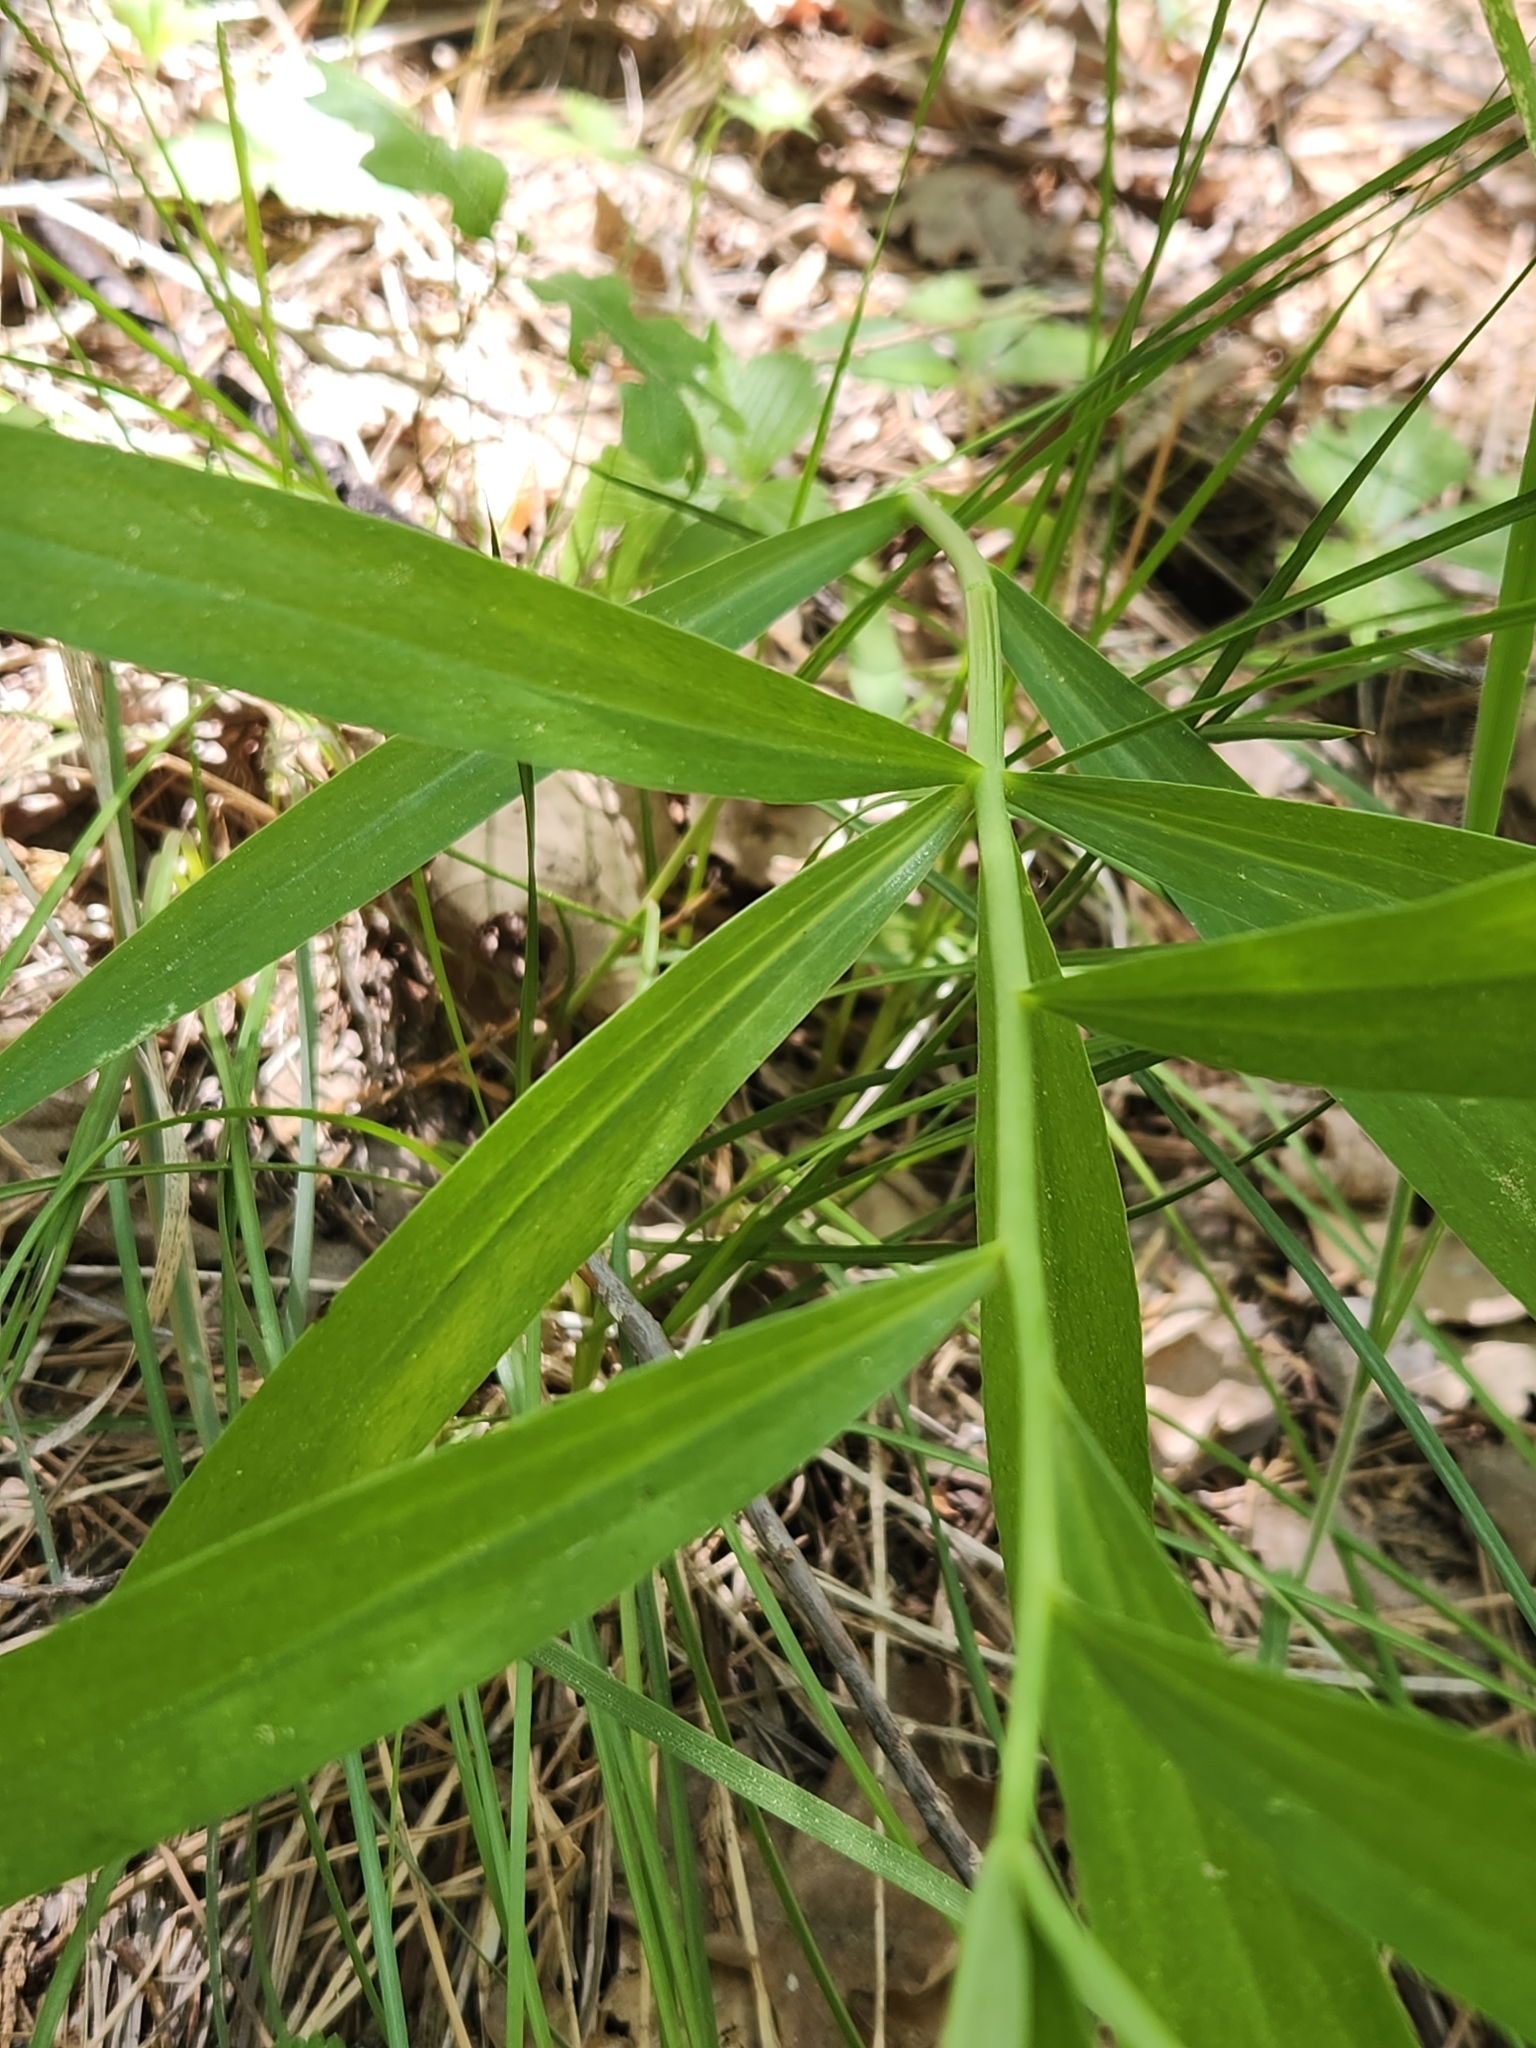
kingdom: Plantae
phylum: Tracheophyta
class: Liliopsida
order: Liliales
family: Liliaceae
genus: Lilium
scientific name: Lilium parryi
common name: Lemon lily
